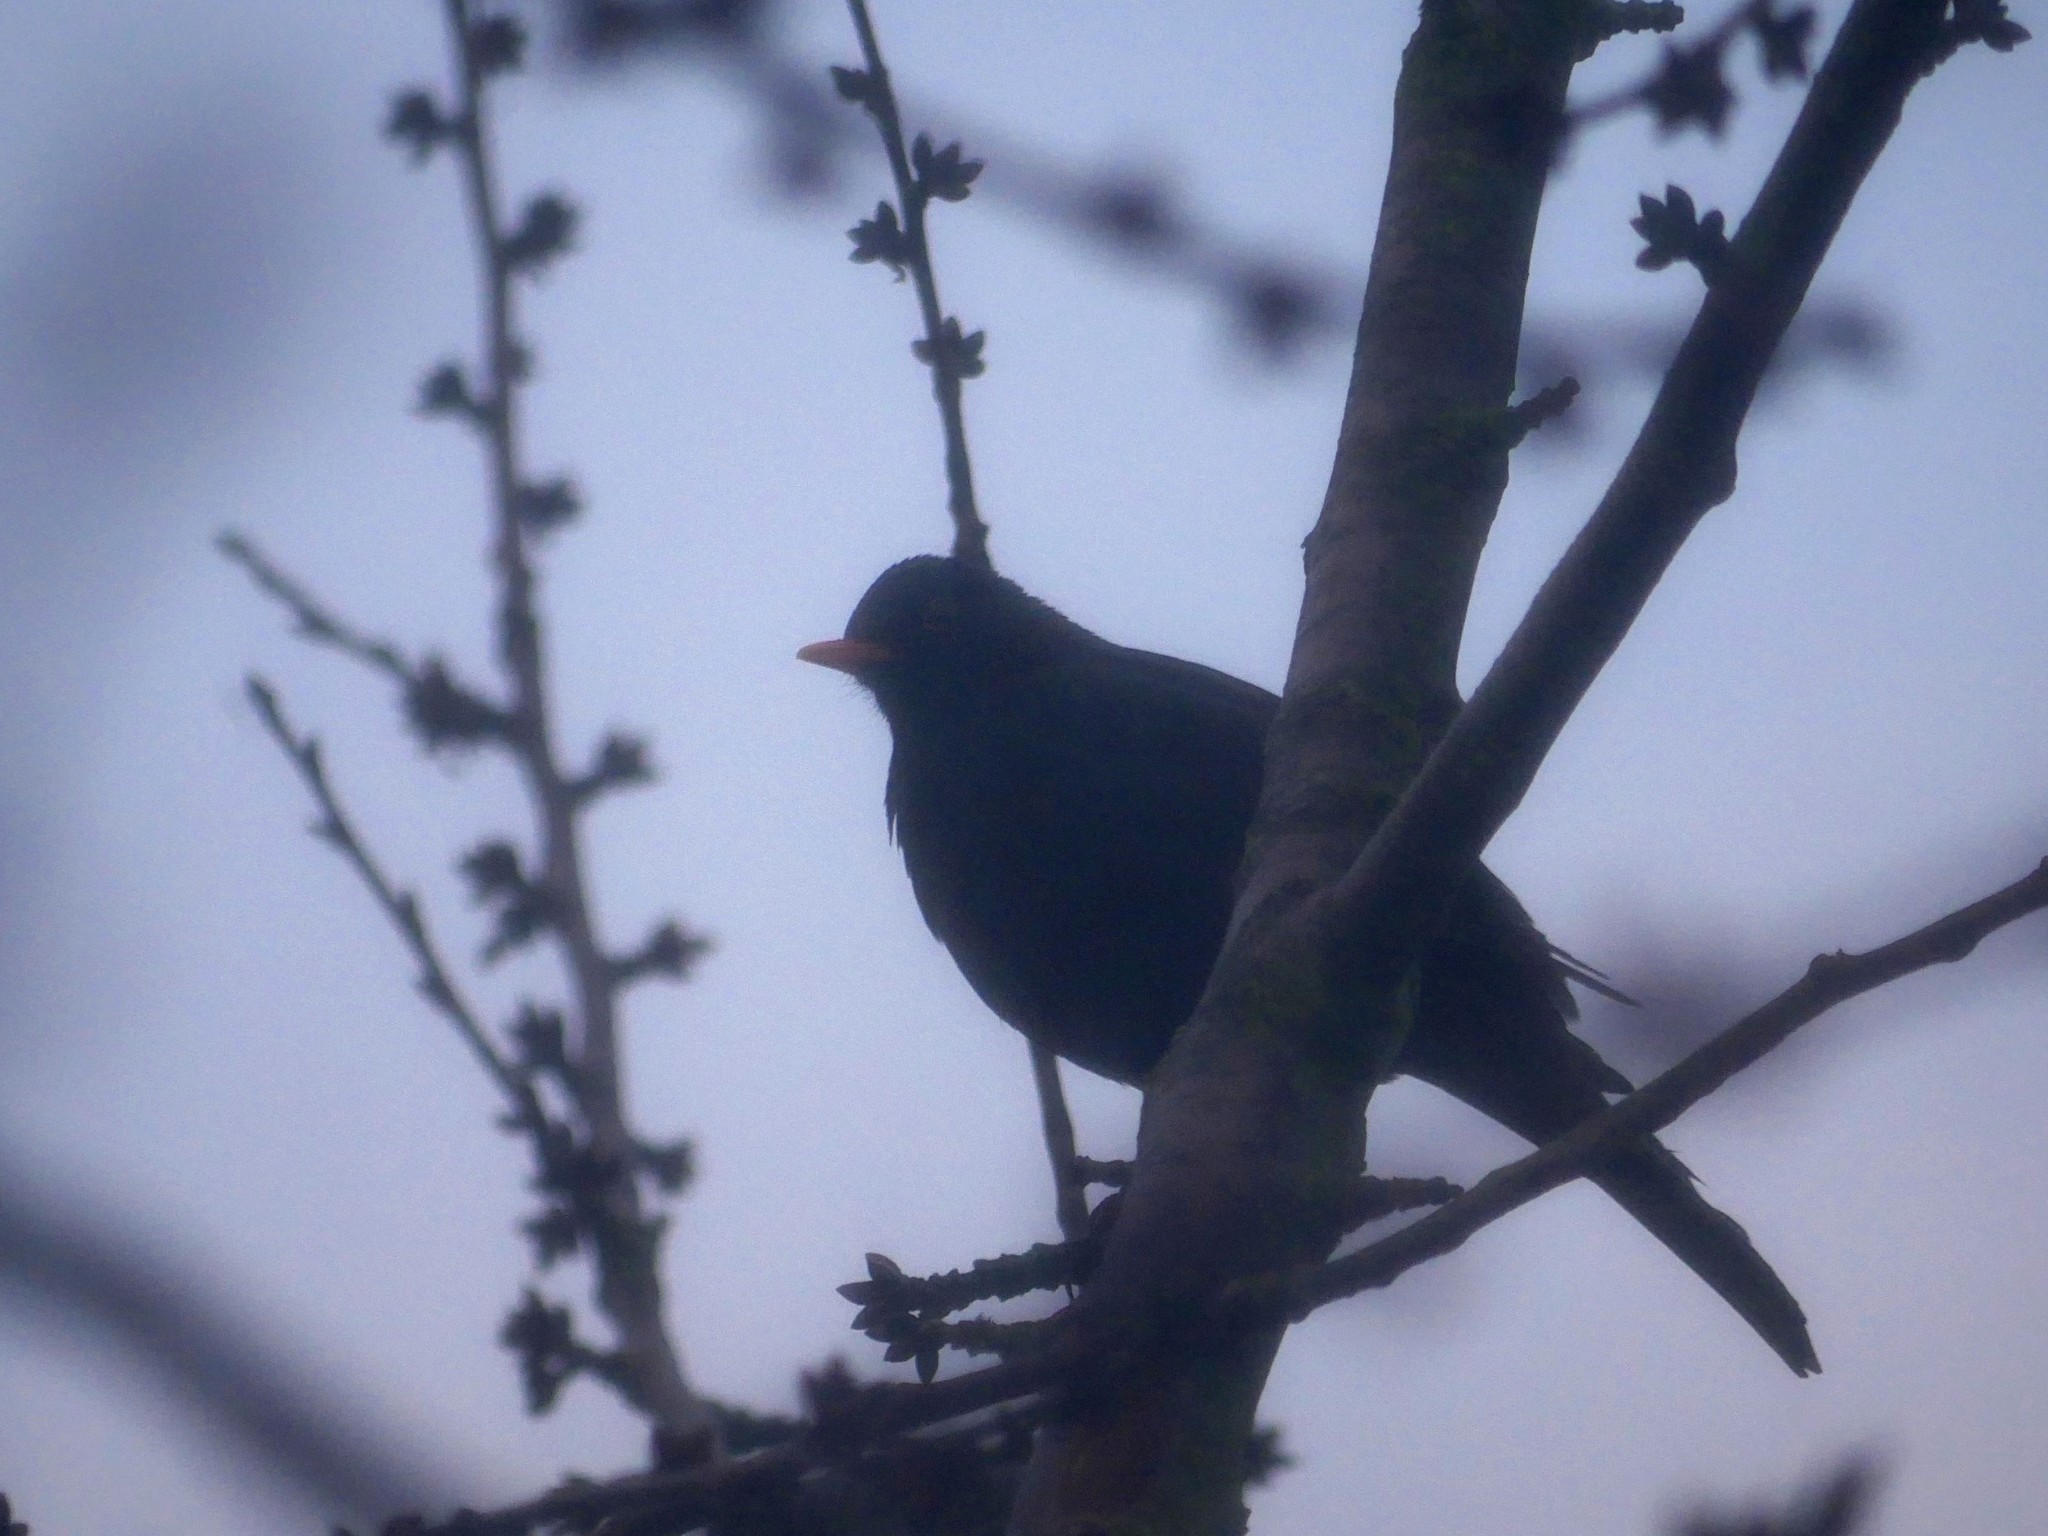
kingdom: Animalia
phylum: Chordata
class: Aves
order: Passeriformes
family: Turdidae
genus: Turdus
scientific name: Turdus merula
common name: Common blackbird
